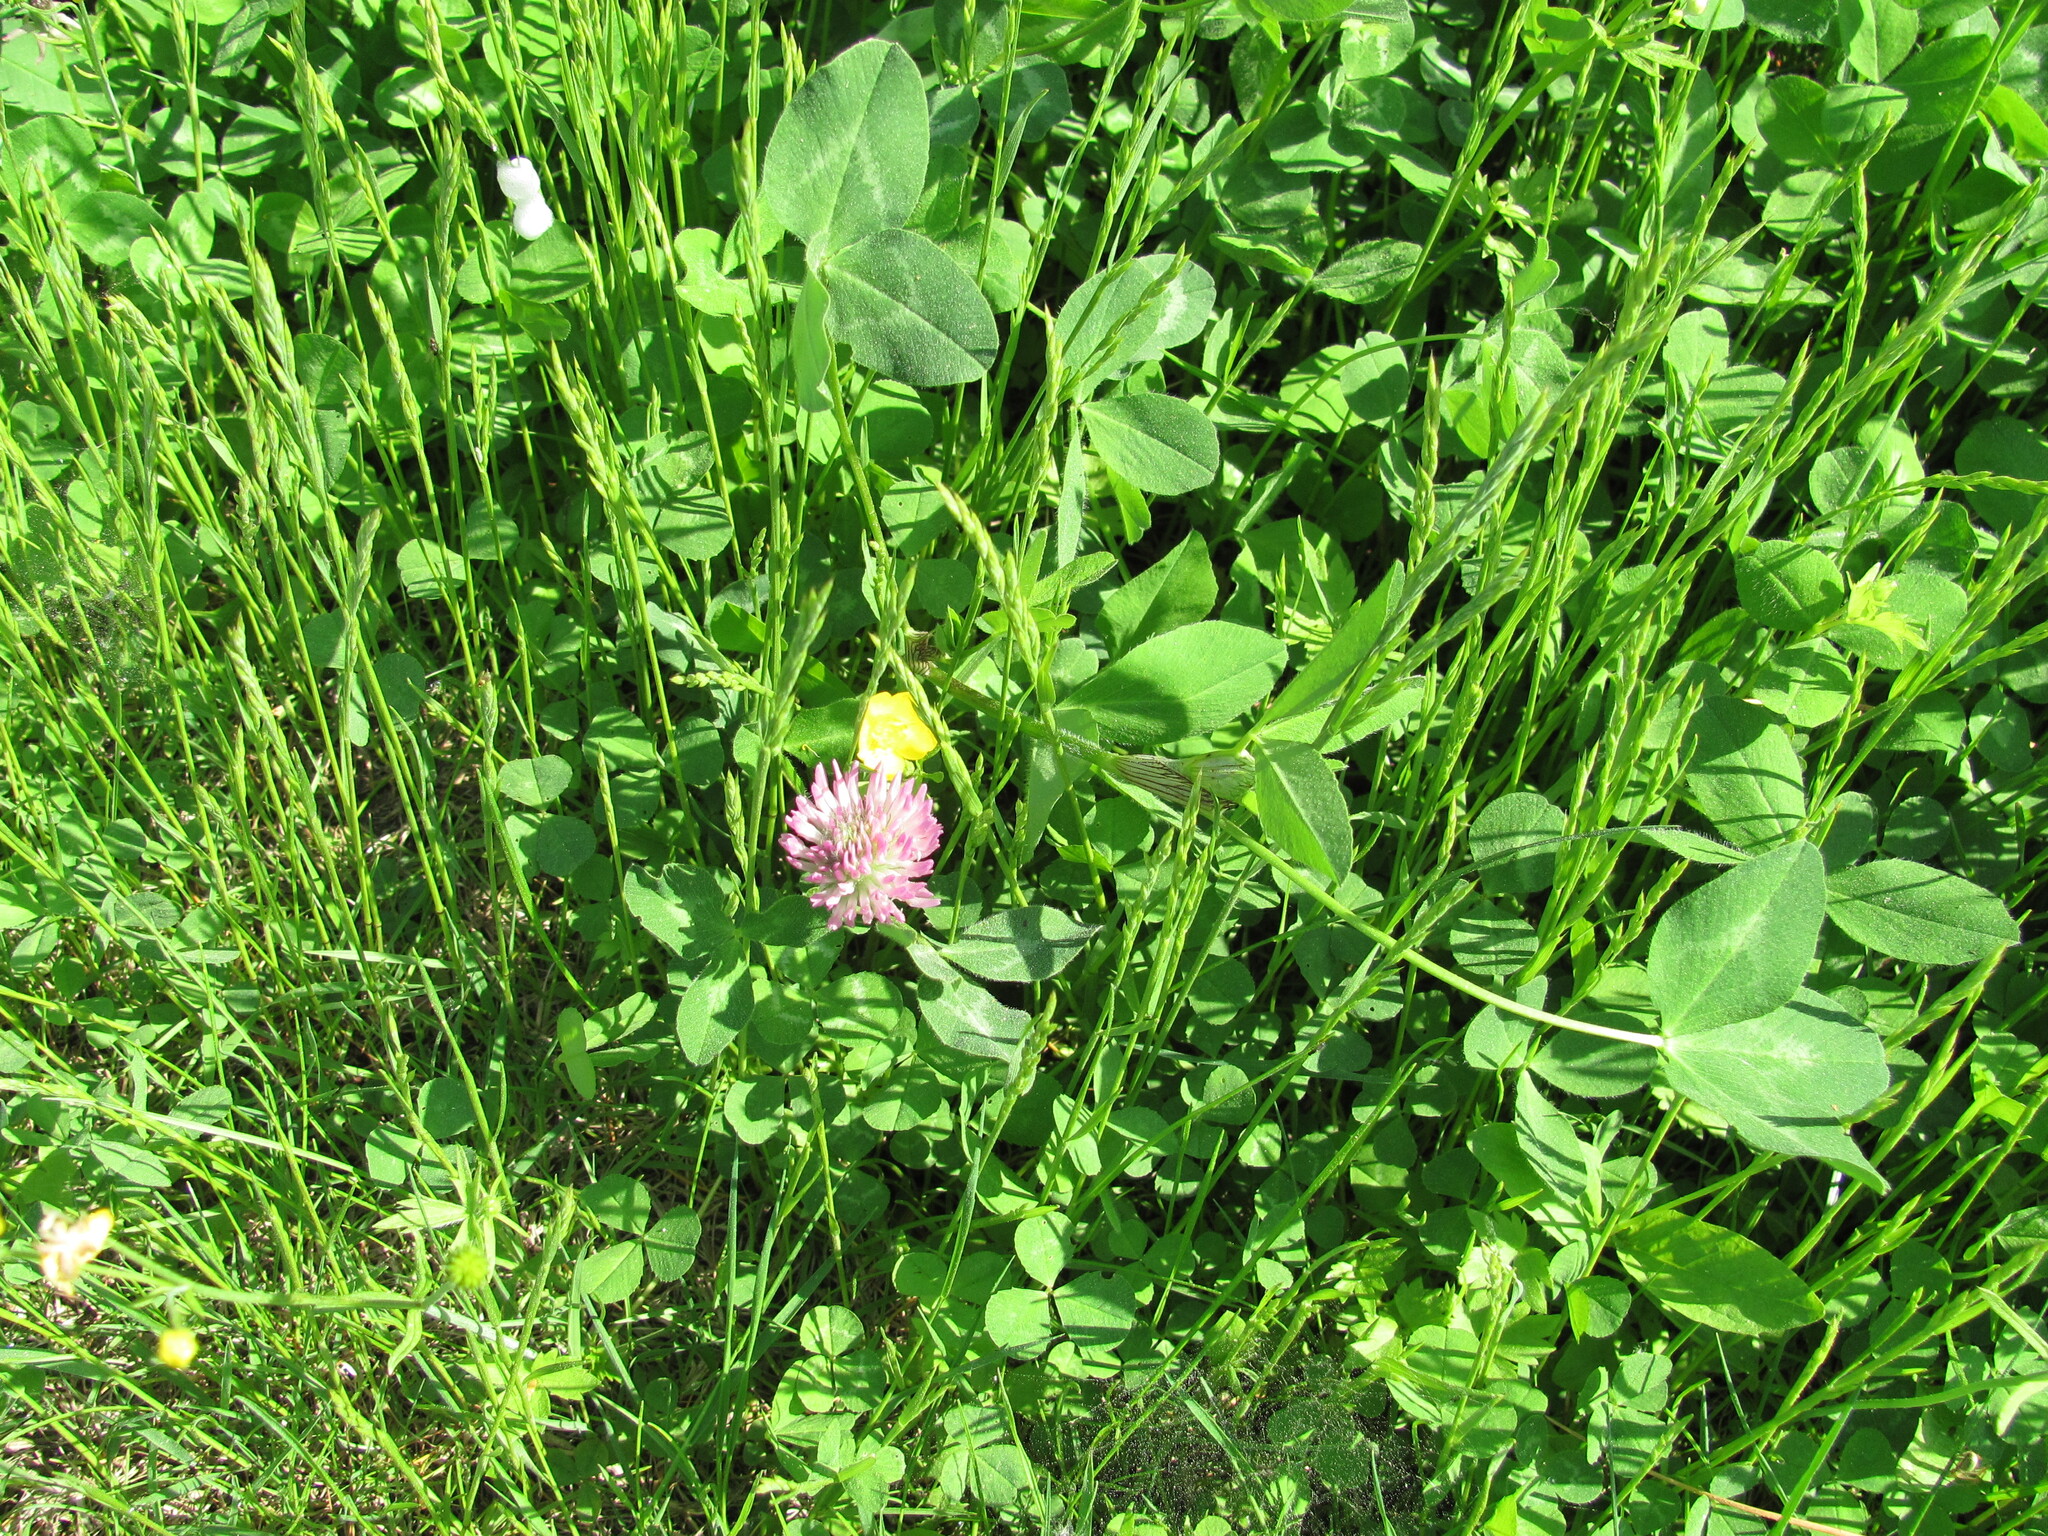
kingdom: Plantae
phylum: Tracheophyta
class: Magnoliopsida
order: Fabales
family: Fabaceae
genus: Trifolium
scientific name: Trifolium pratense
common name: Red clover
